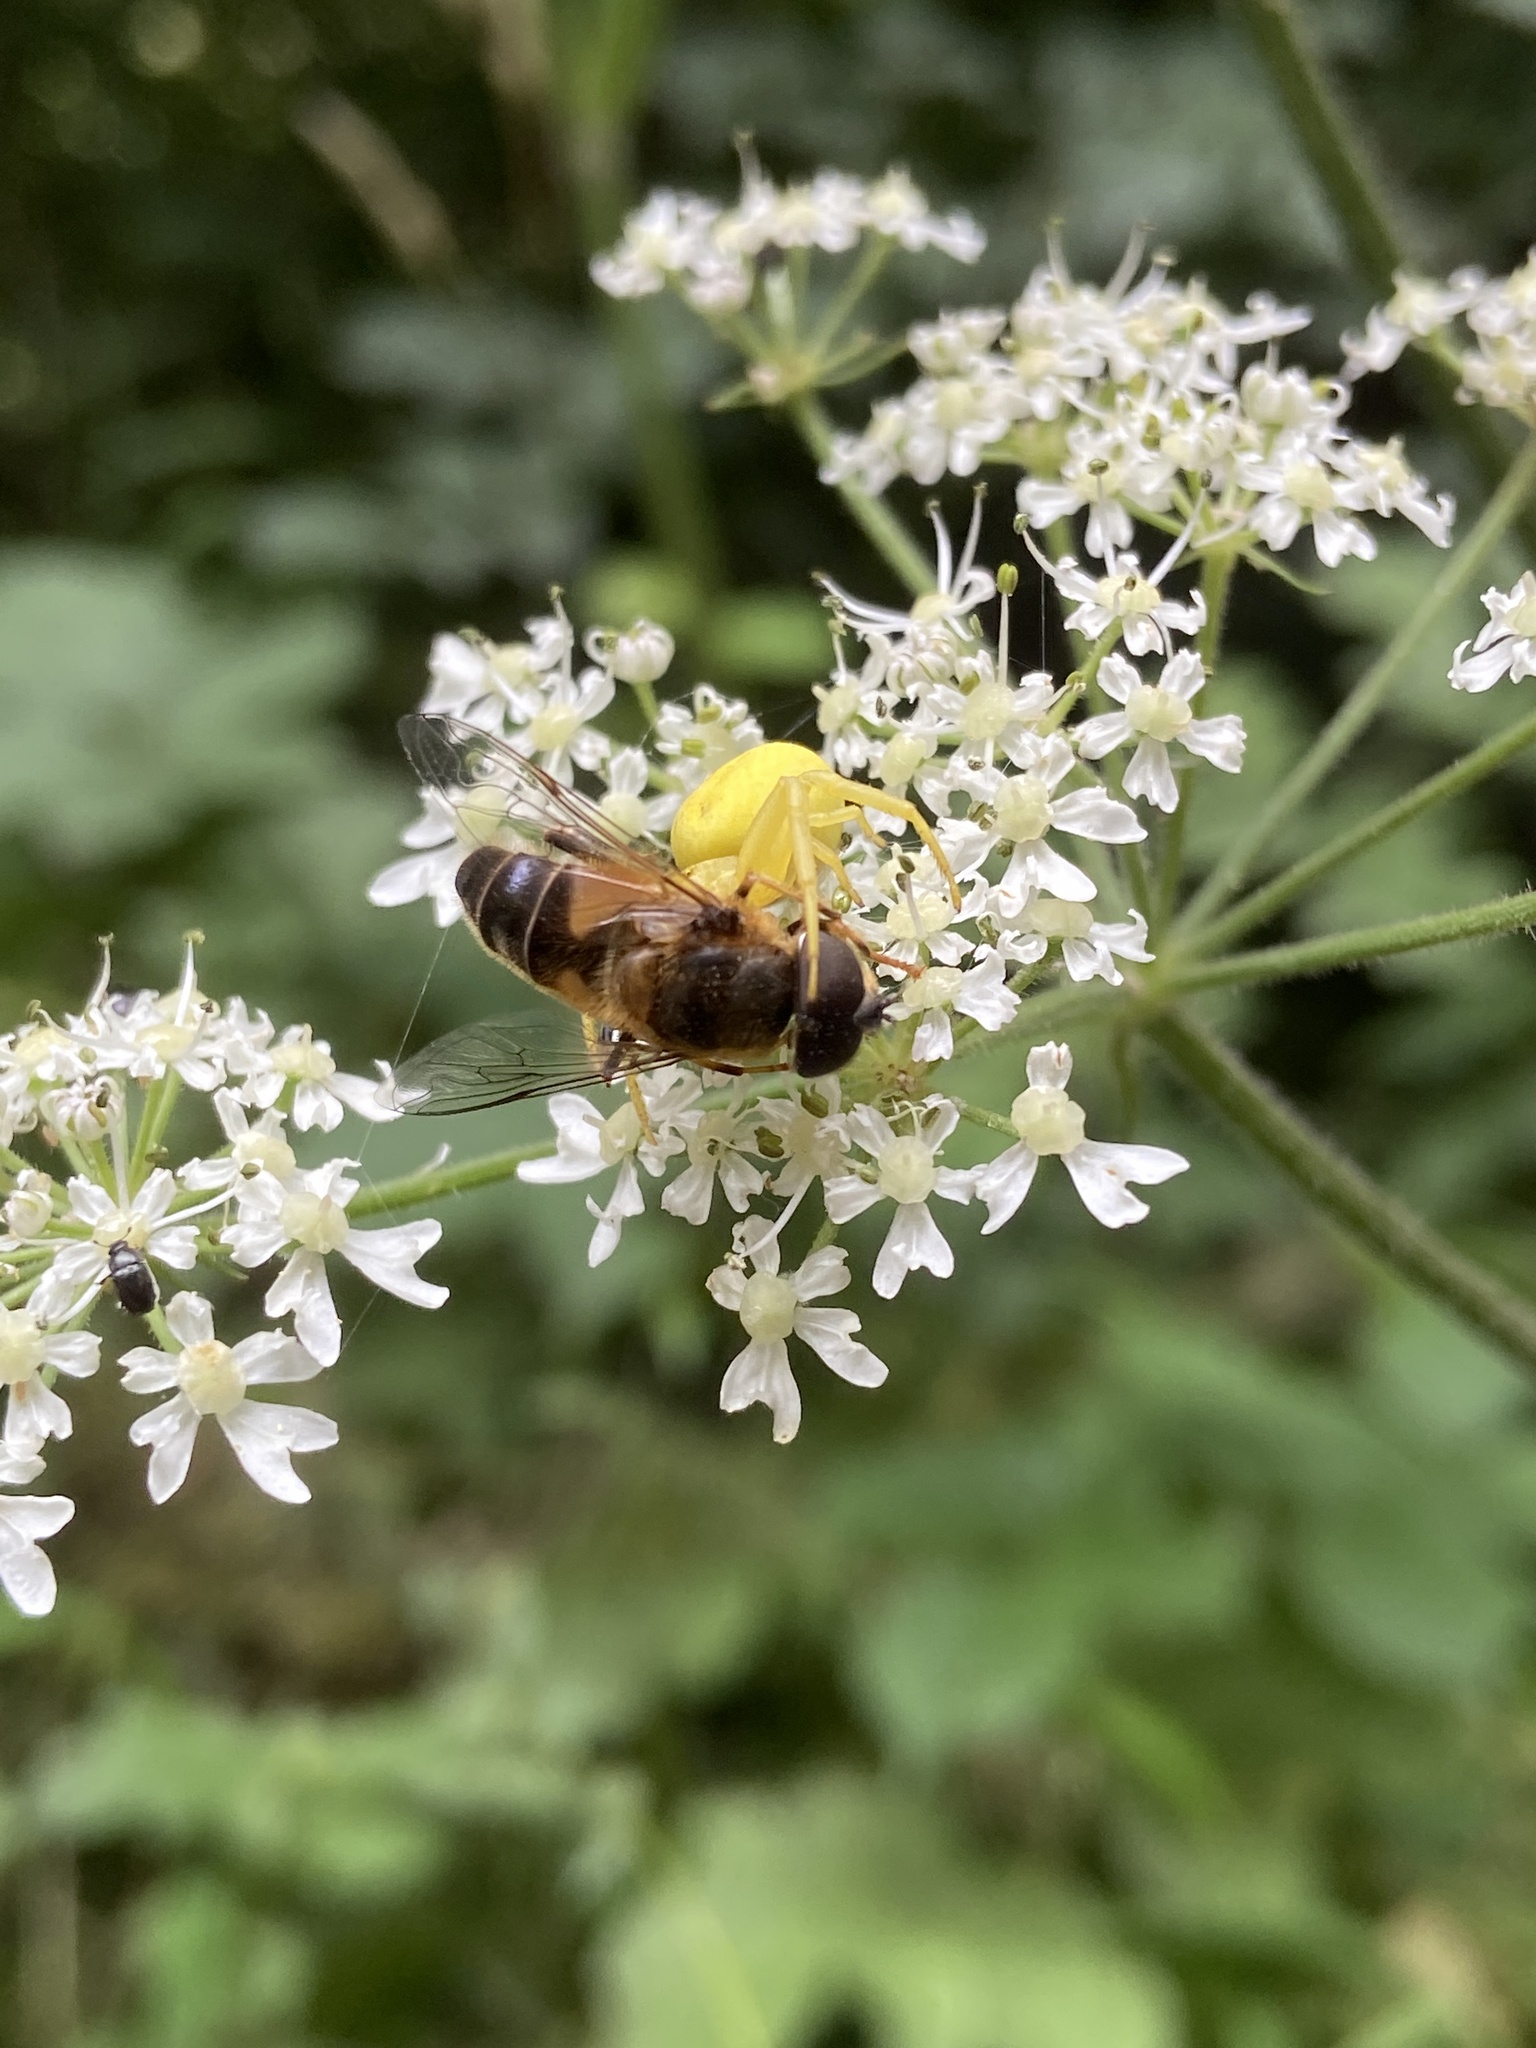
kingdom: Animalia
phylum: Arthropoda
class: Insecta
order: Diptera
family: Syrphidae
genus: Eristalis
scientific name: Eristalis pertinax
